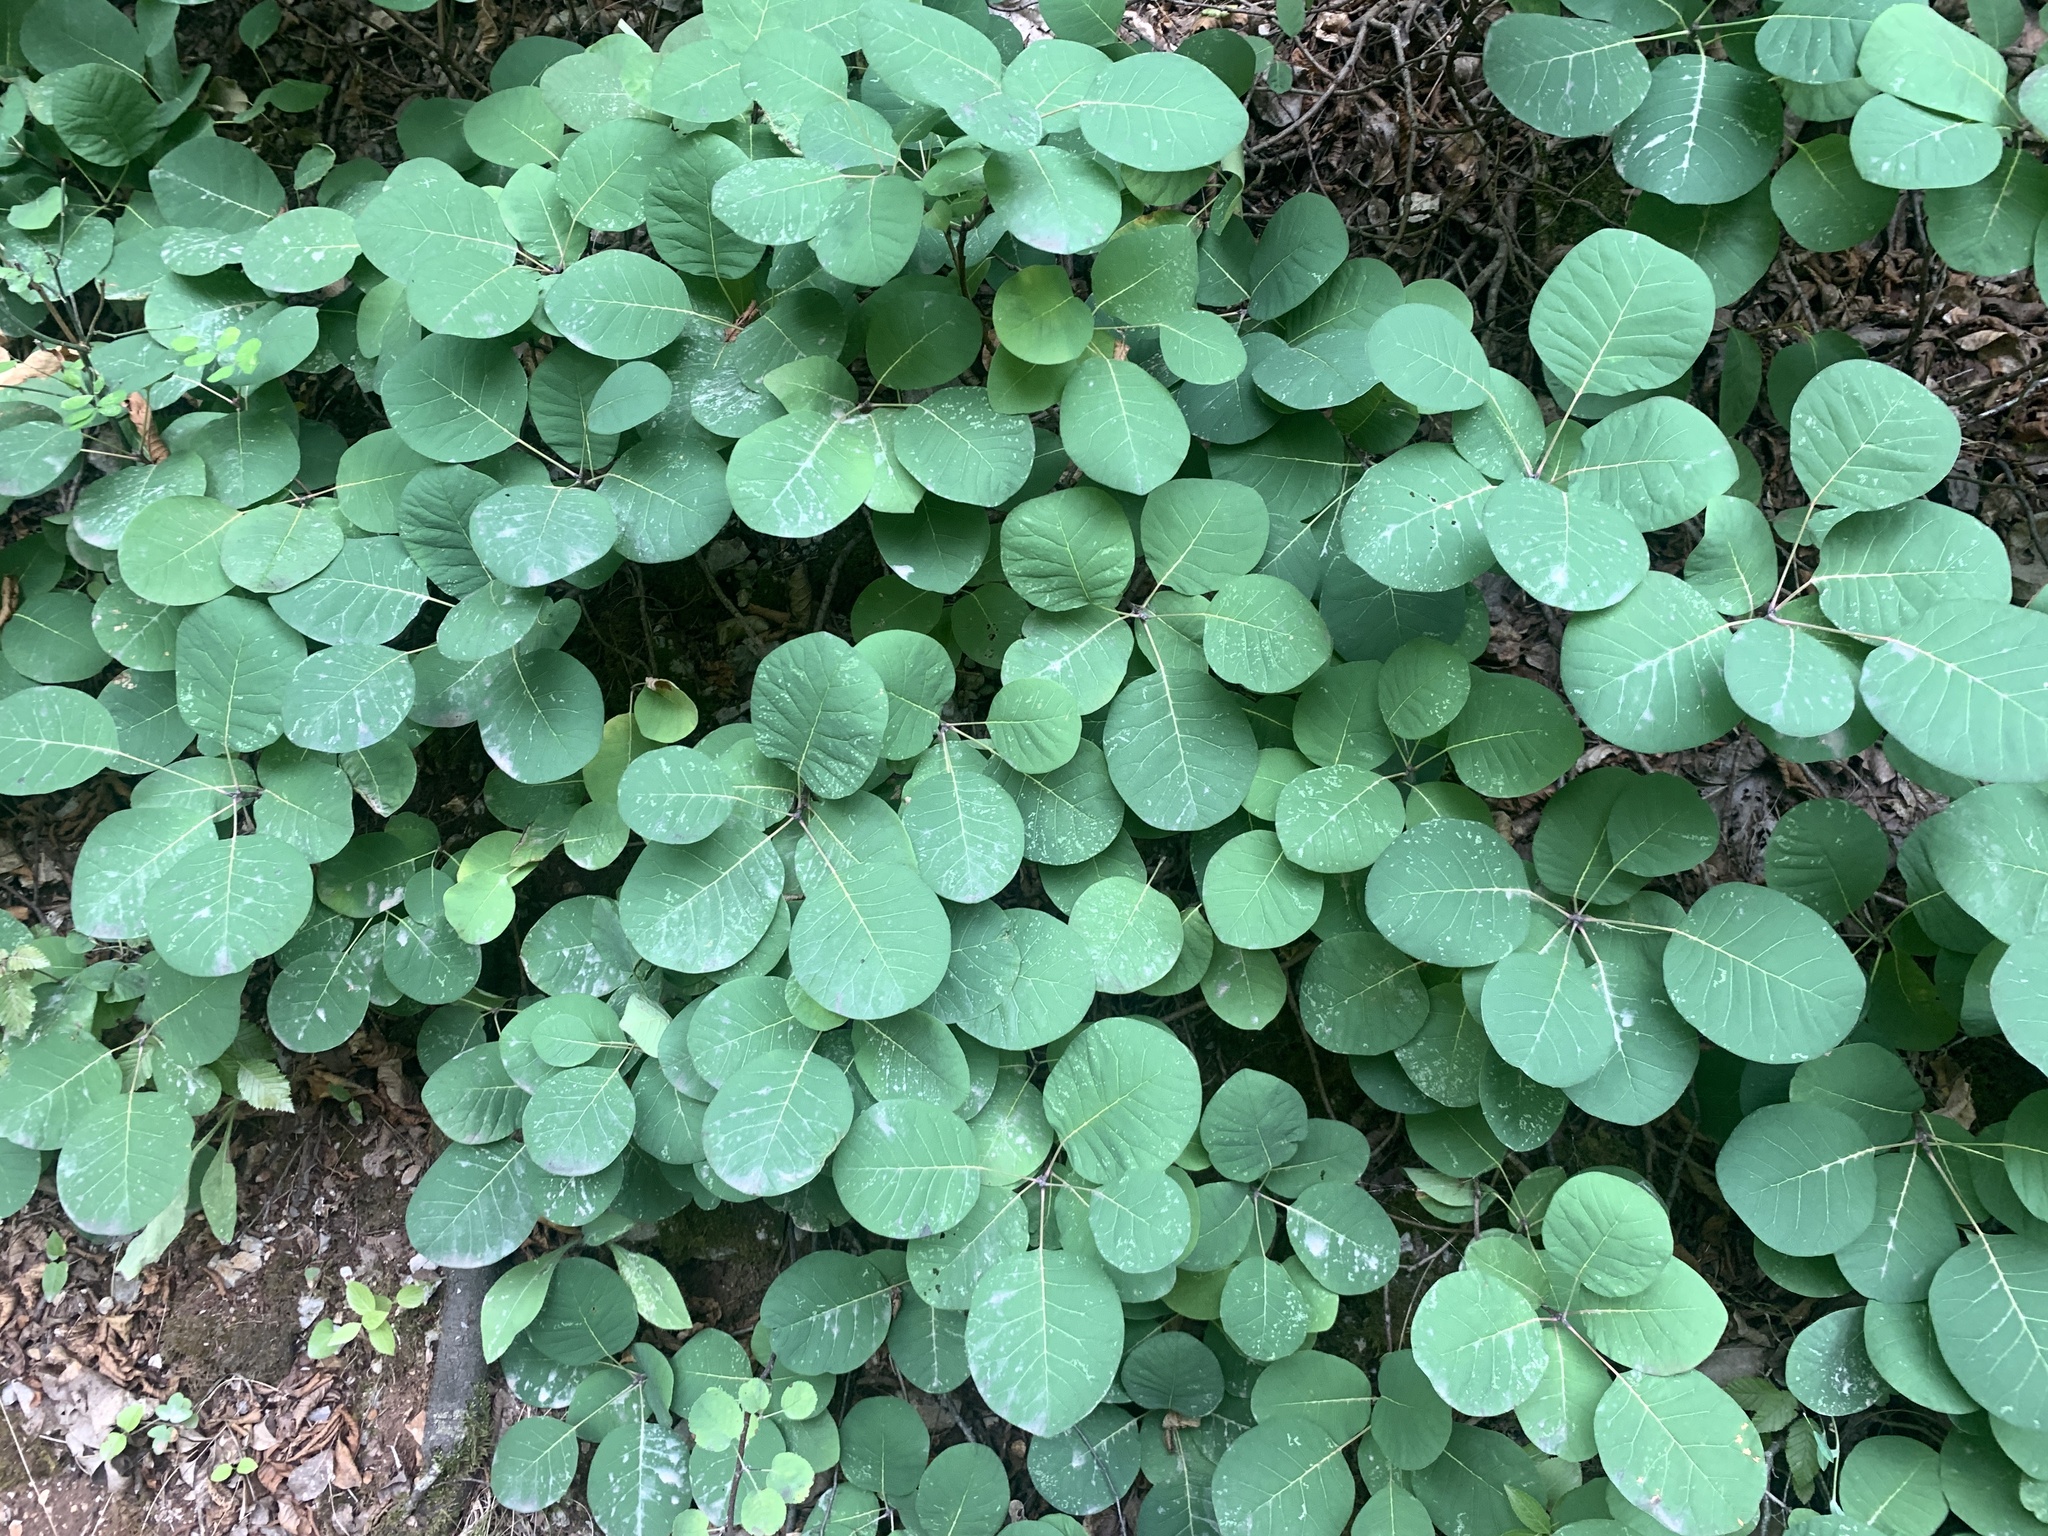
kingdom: Plantae
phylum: Tracheophyta
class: Magnoliopsida
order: Sapindales
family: Anacardiaceae
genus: Cotinus
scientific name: Cotinus coggygria
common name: Smoke-tree
